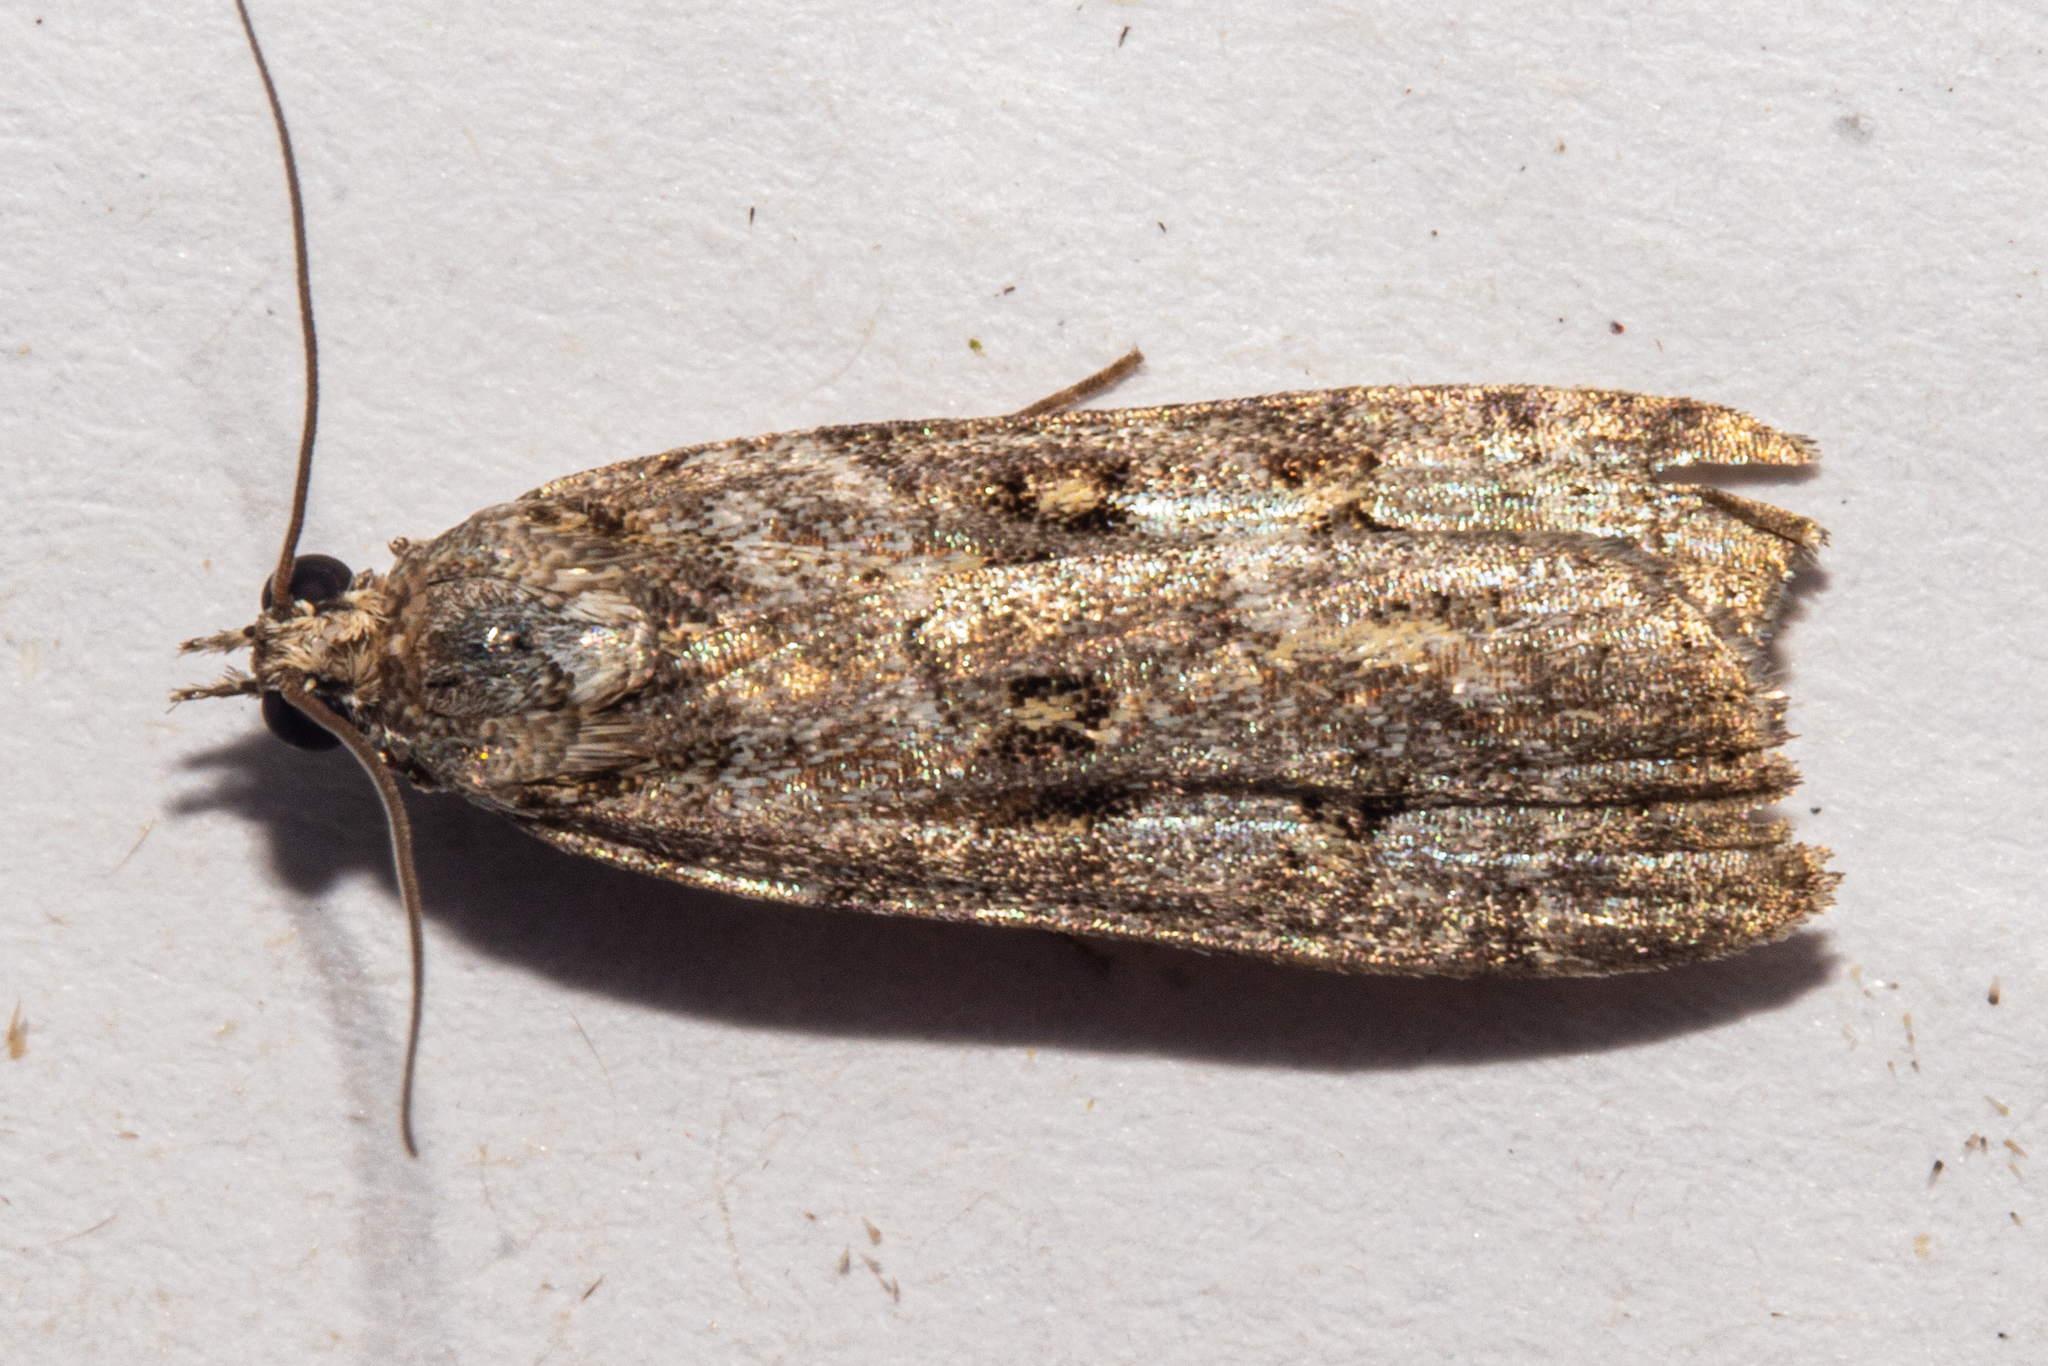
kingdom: Animalia
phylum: Arthropoda
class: Insecta
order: Lepidoptera
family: Crambidae
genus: Eudonia
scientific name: Eudonia diphtheralis
